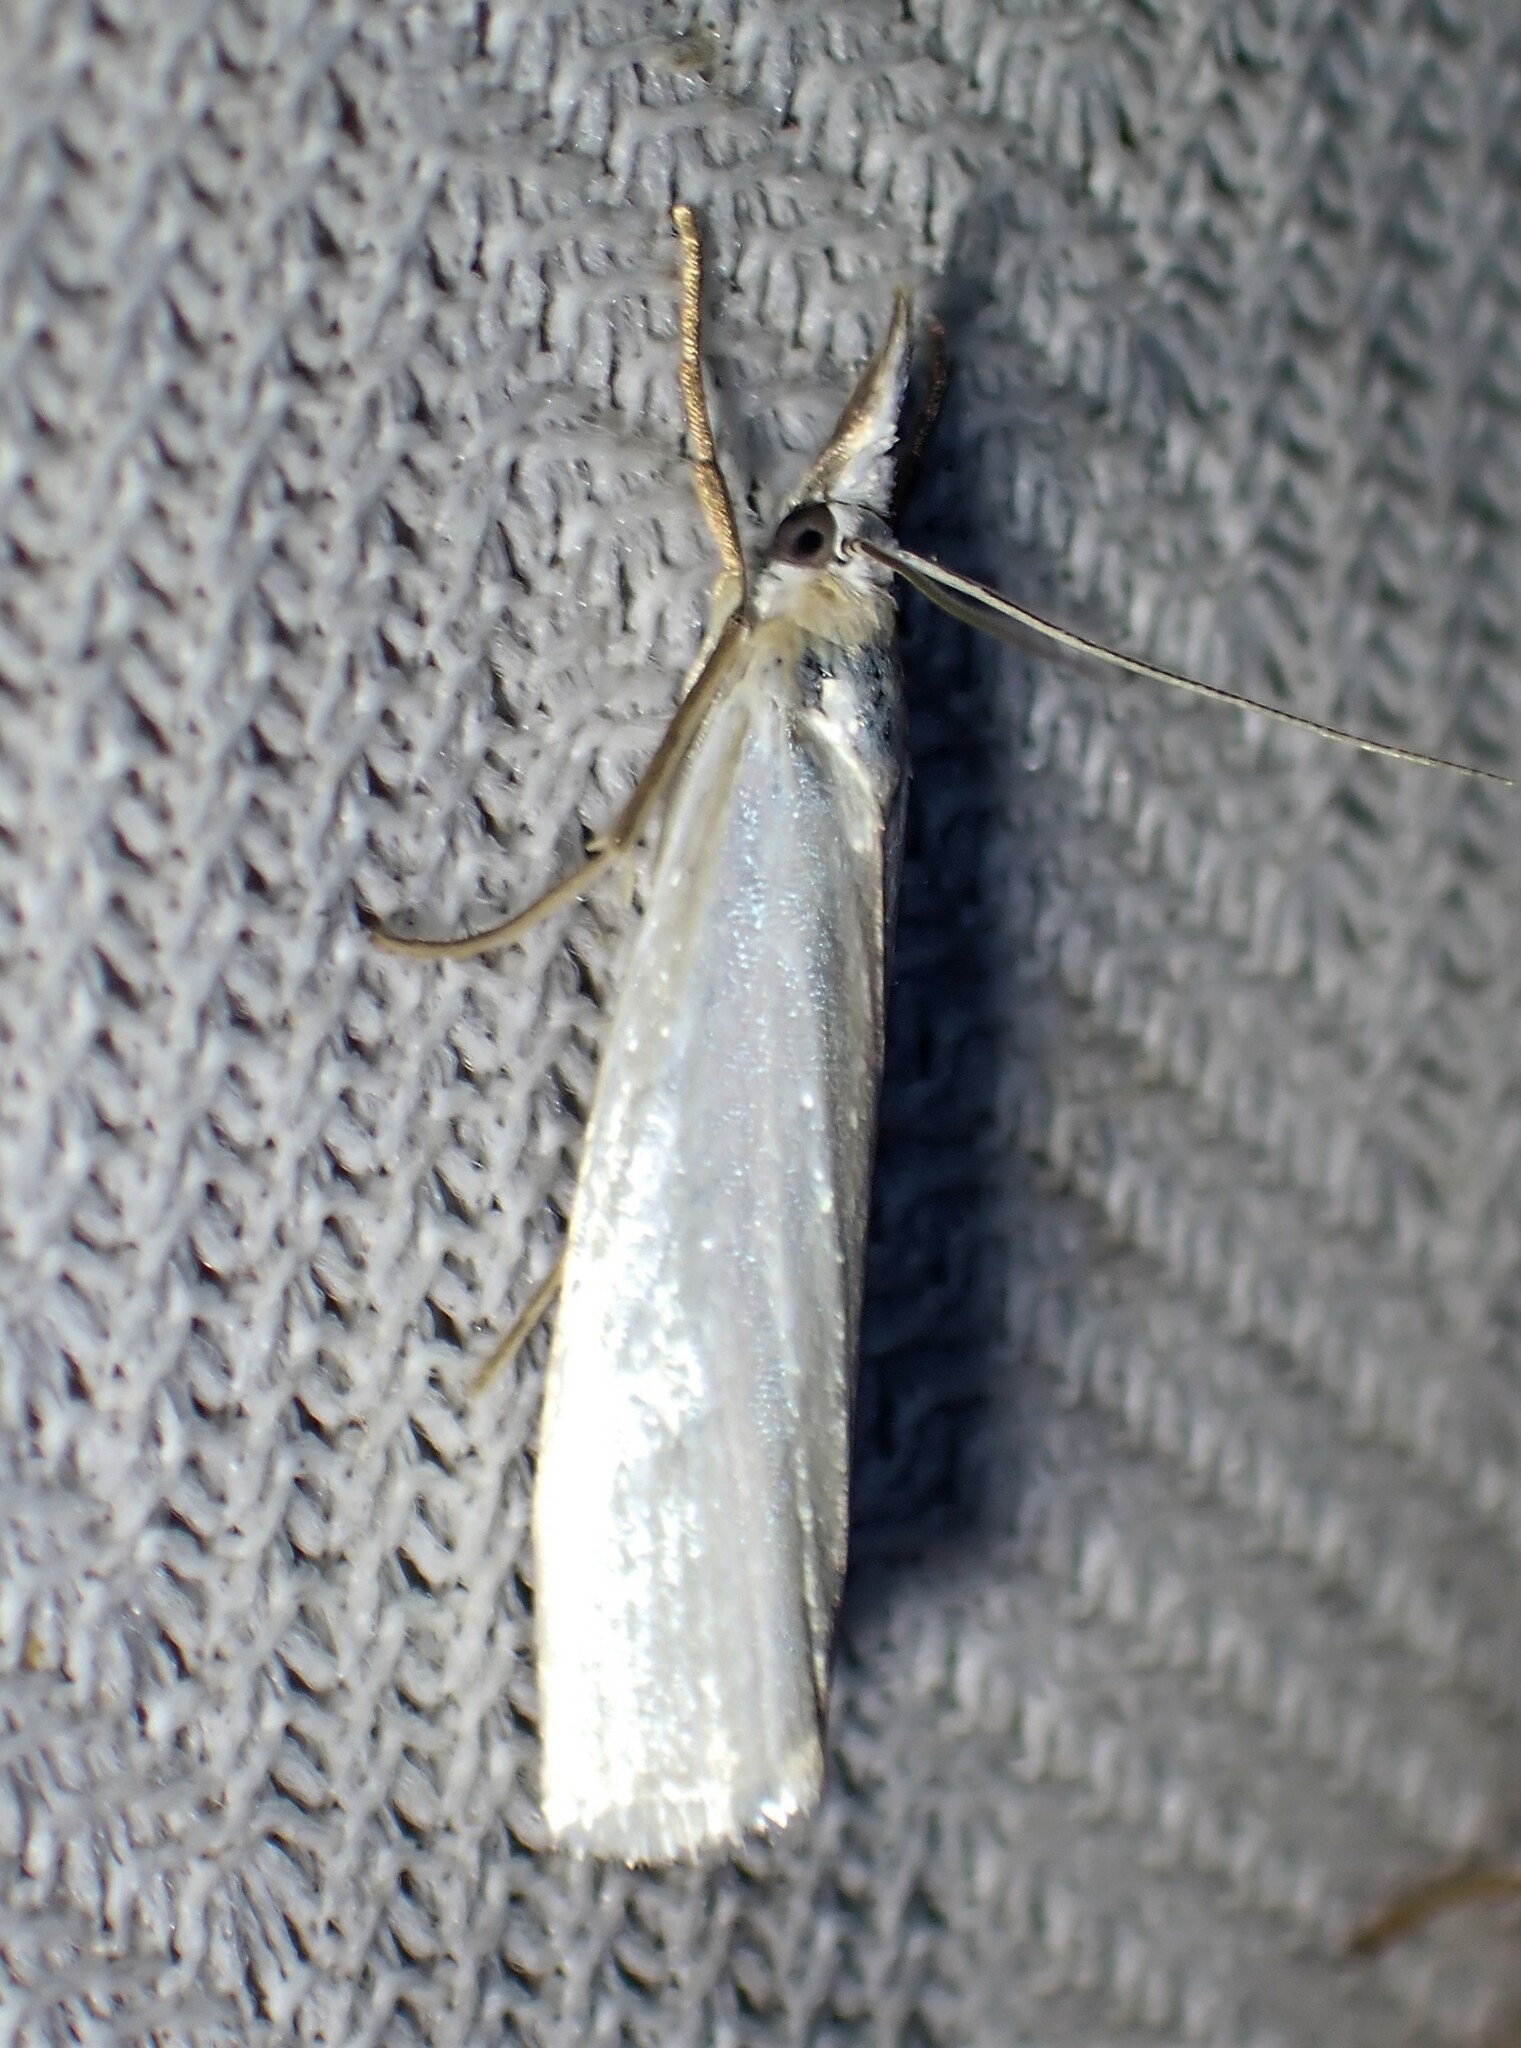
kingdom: Animalia
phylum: Arthropoda
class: Insecta
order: Lepidoptera
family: Crambidae
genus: Crambus
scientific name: Crambus perlellus
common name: Yellow satin veneer
